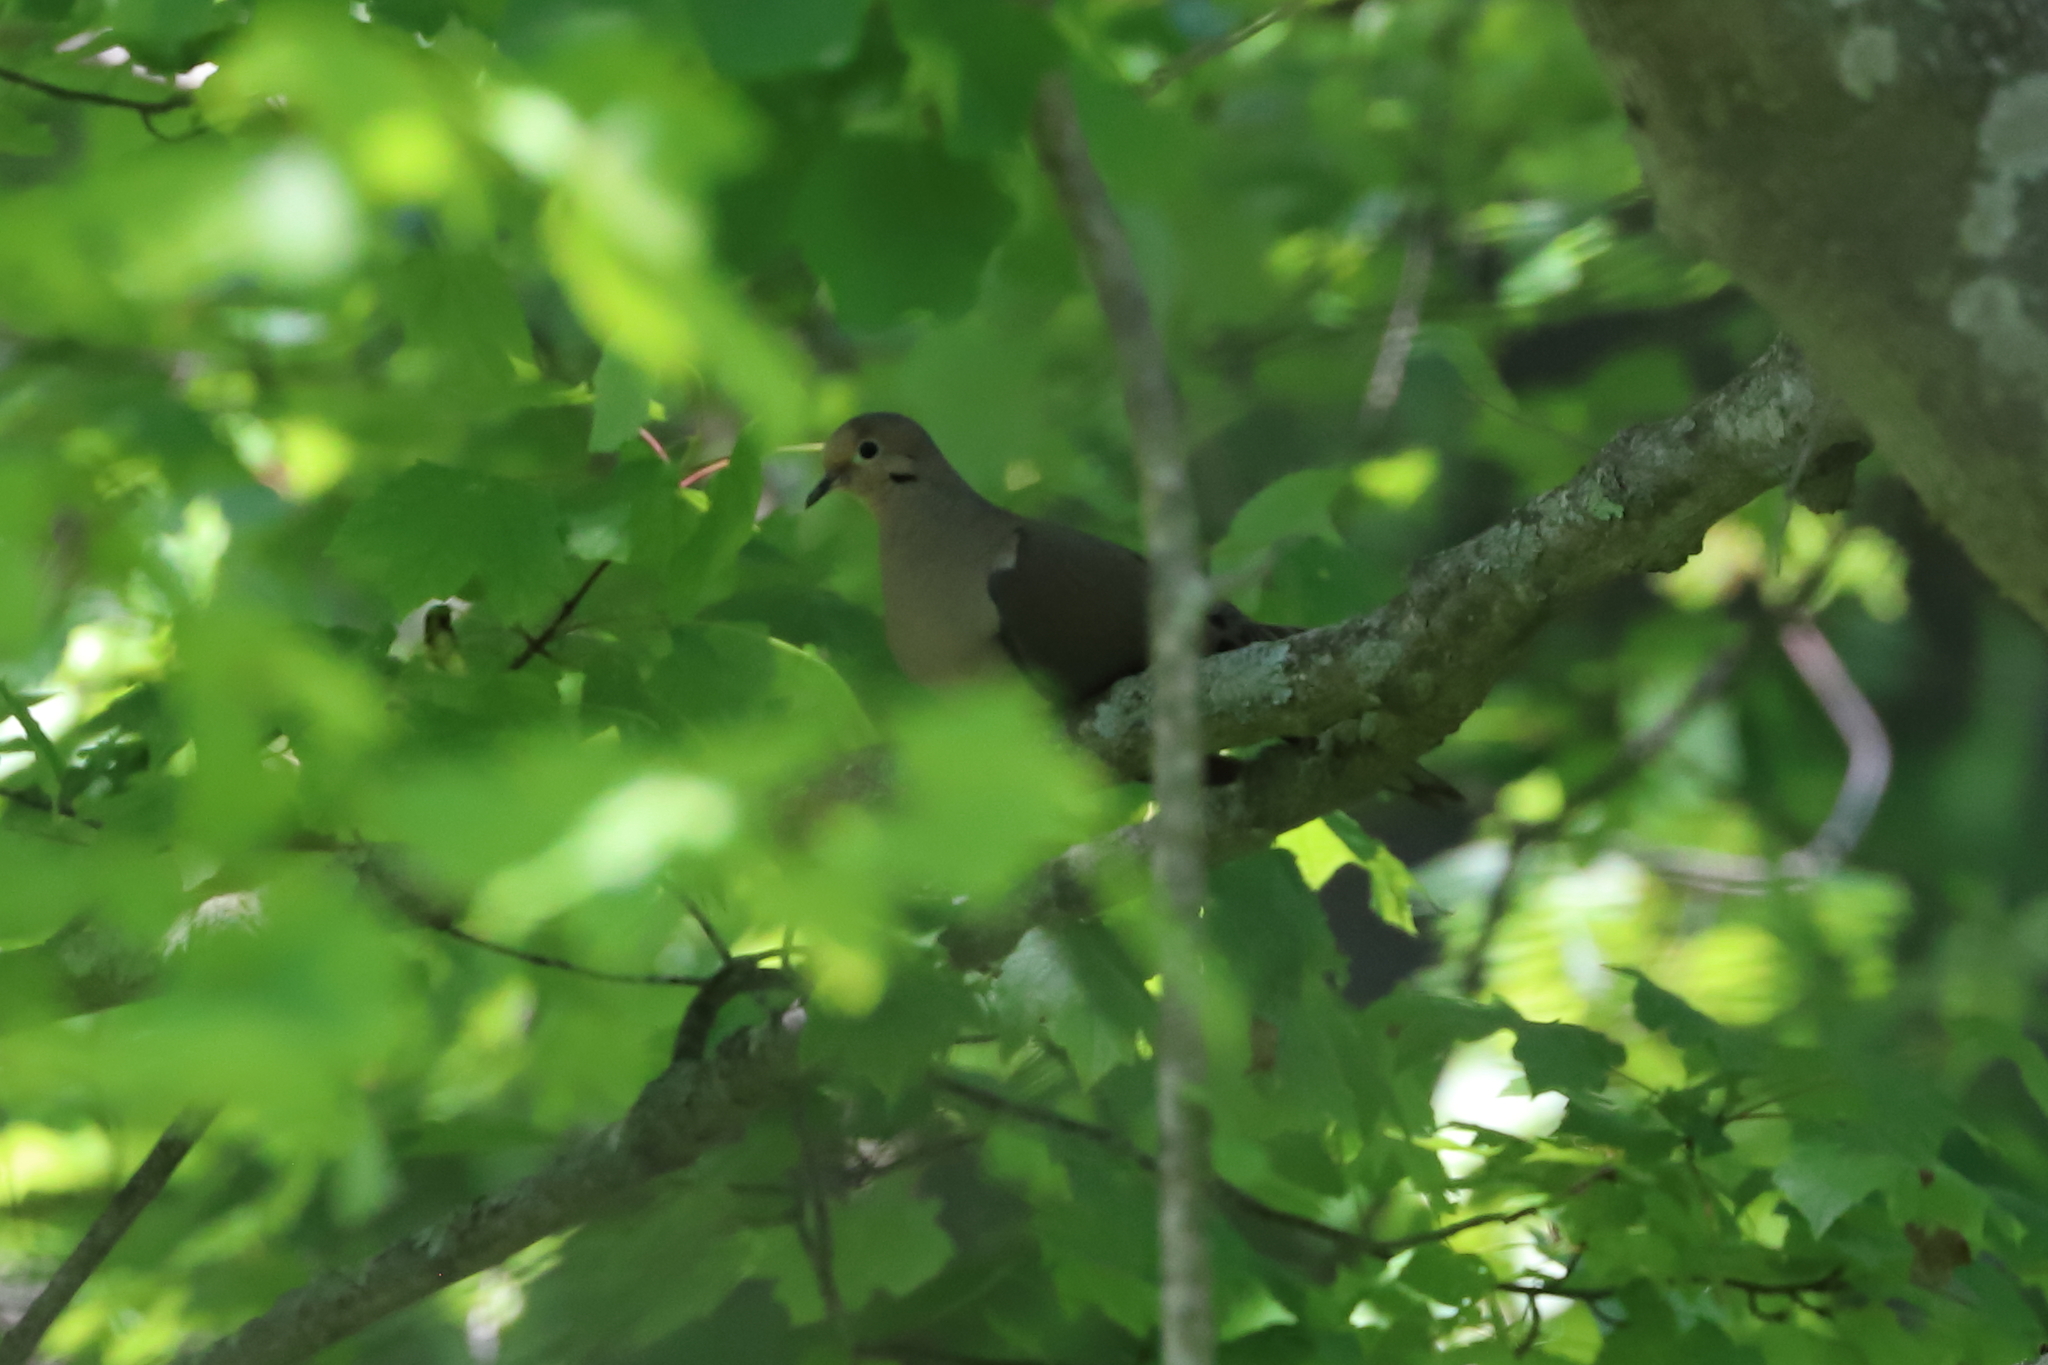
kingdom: Animalia
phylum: Chordata
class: Aves
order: Columbiformes
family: Columbidae
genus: Zenaida
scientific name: Zenaida macroura
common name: Mourning dove
